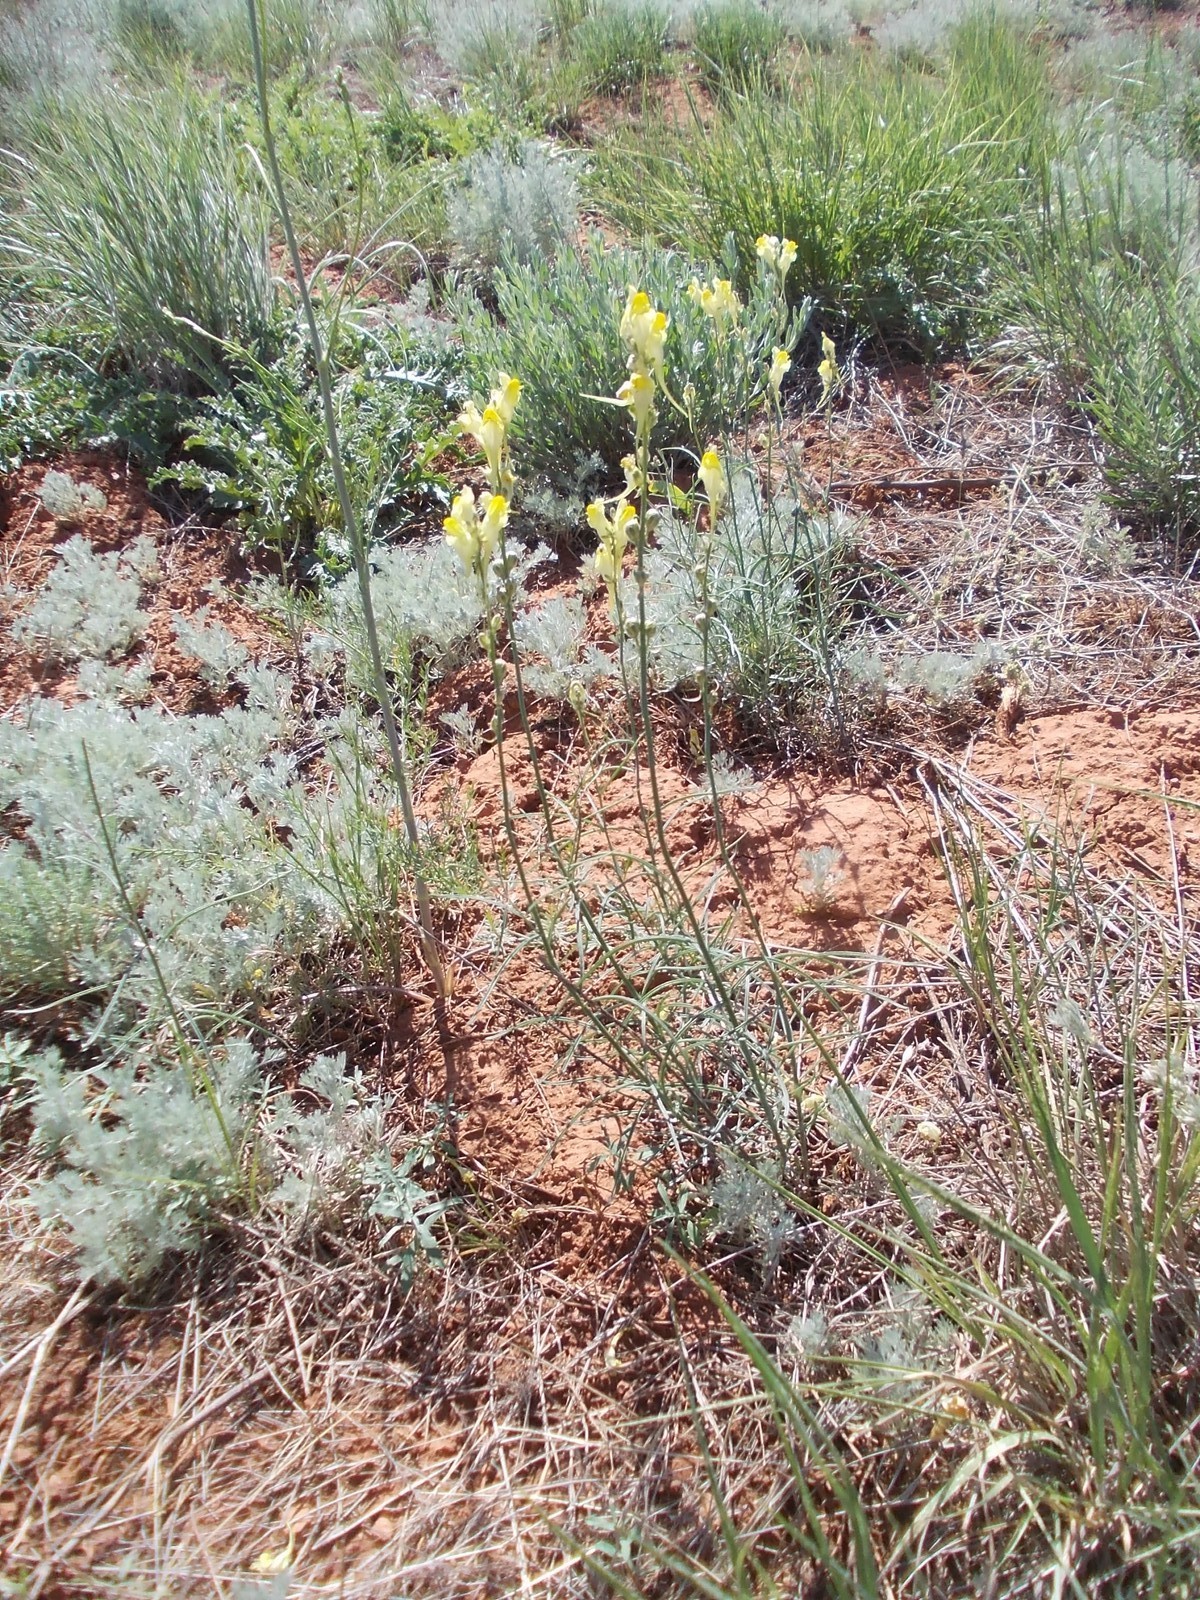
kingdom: Plantae
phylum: Tracheophyta
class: Magnoliopsida
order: Lamiales
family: Plantaginaceae
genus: Linaria
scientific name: Linaria incompleta
